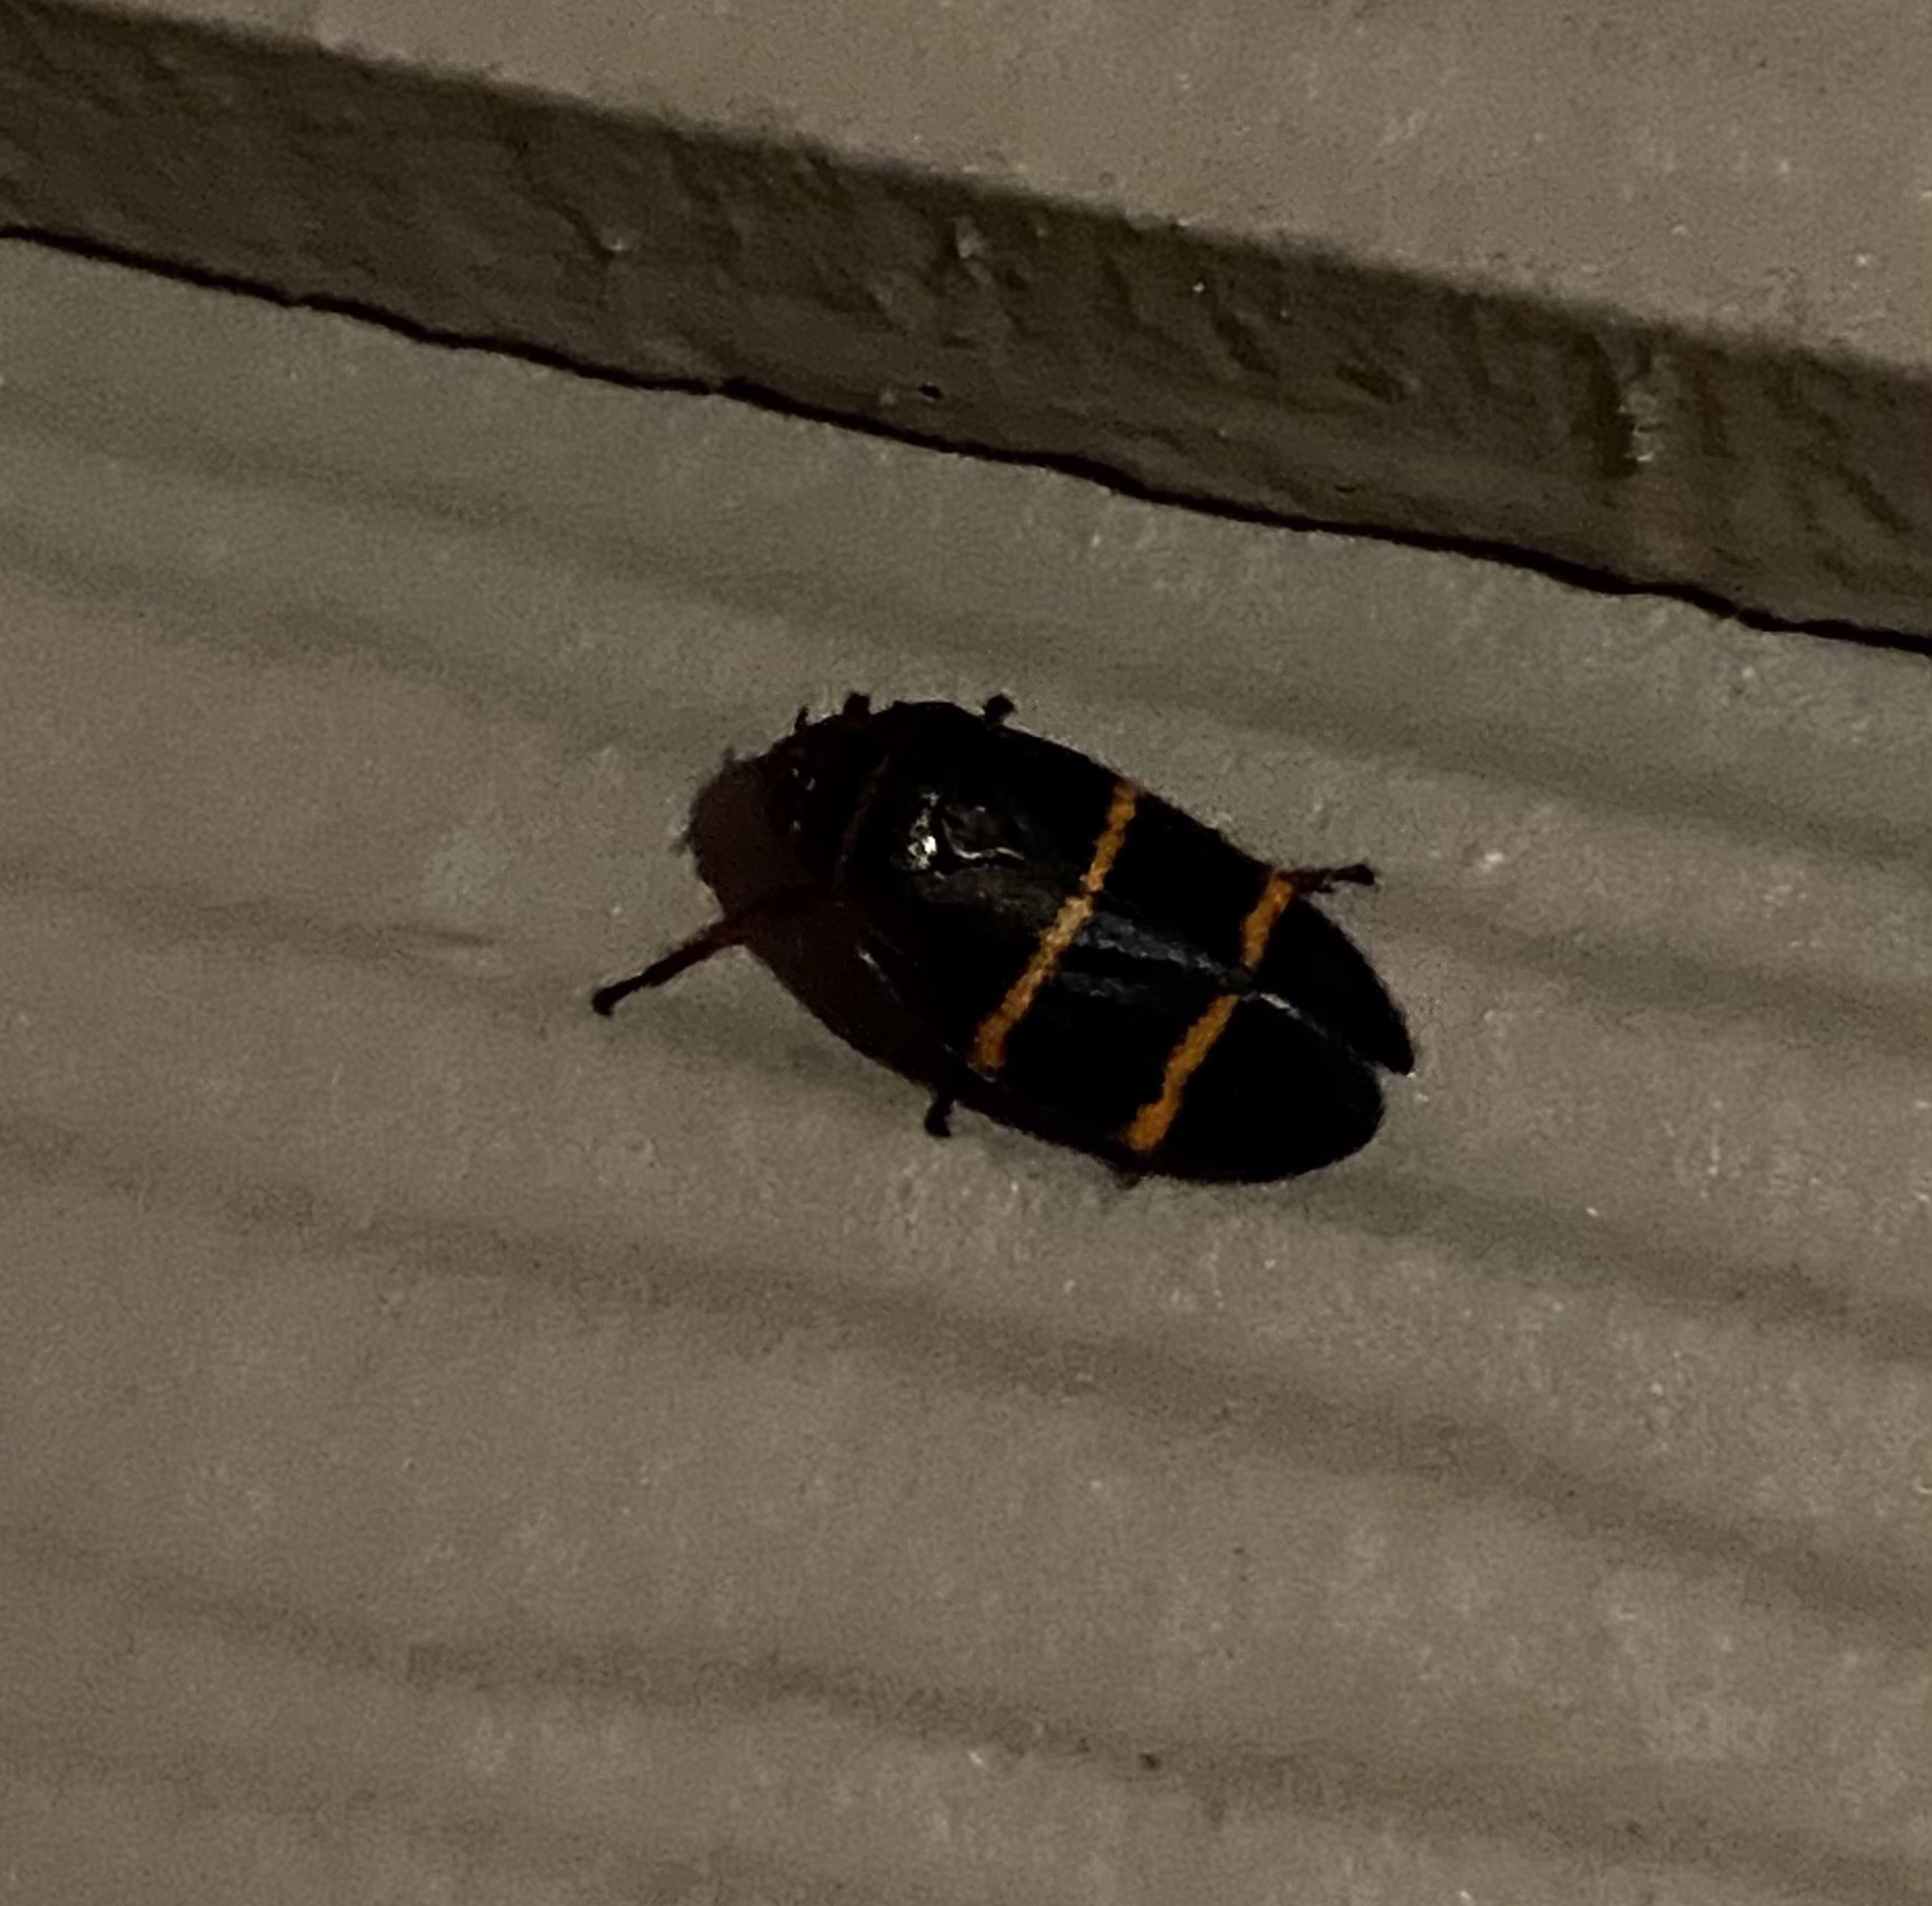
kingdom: Animalia
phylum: Arthropoda
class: Insecta
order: Hemiptera
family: Cercopidae
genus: Prosapia
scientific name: Prosapia bicincta
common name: Twolined spittlebug
